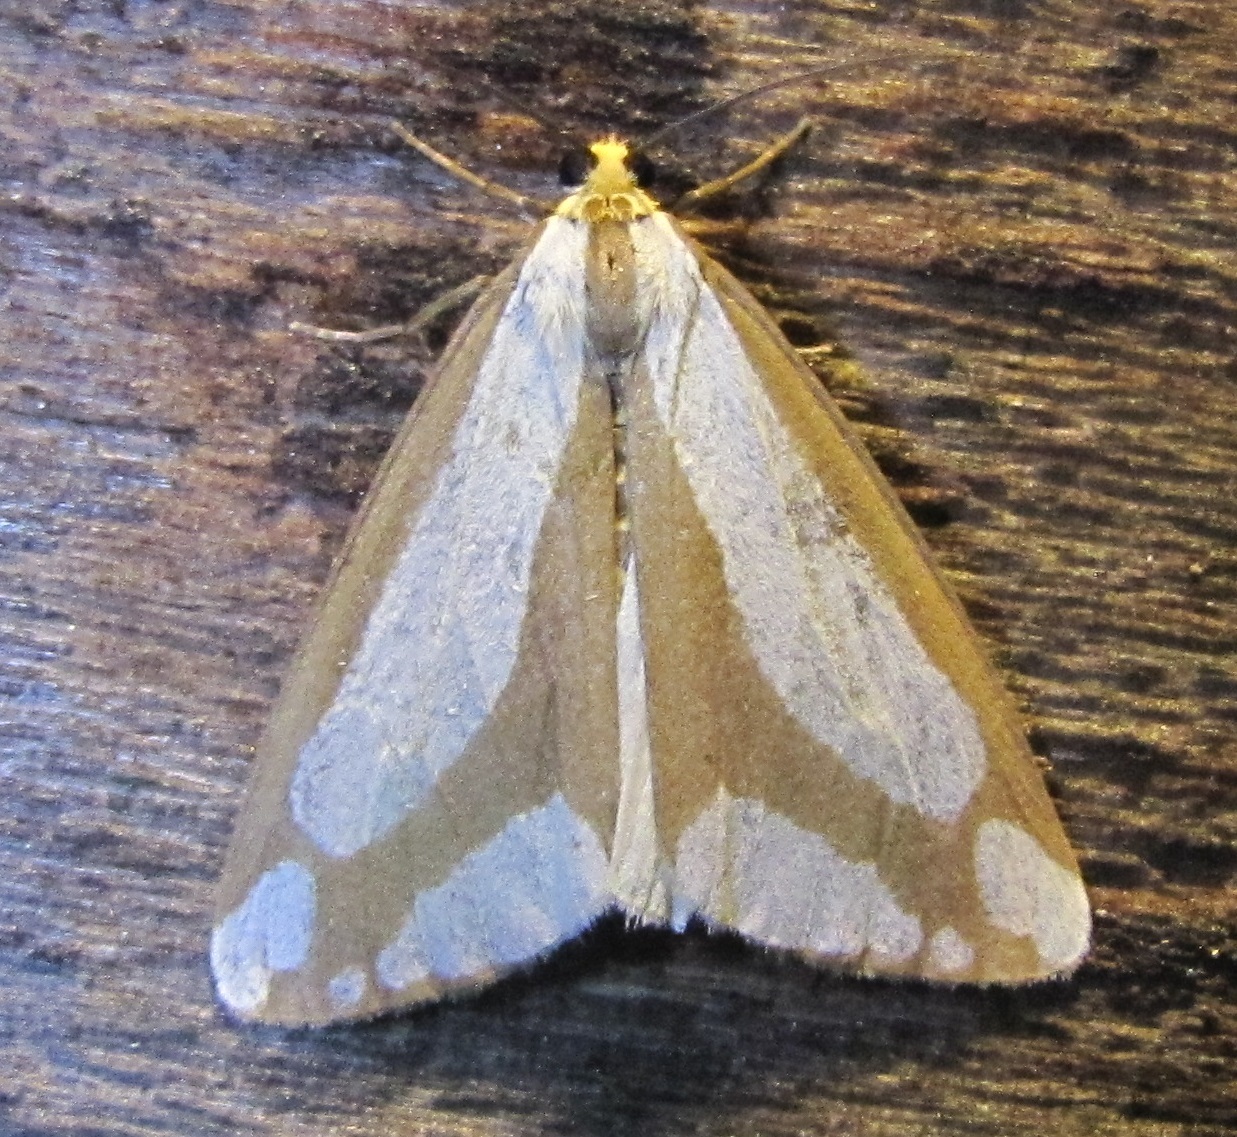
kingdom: Animalia
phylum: Arthropoda
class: Insecta
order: Lepidoptera
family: Erebidae
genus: Haploa
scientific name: Haploa lecontei
